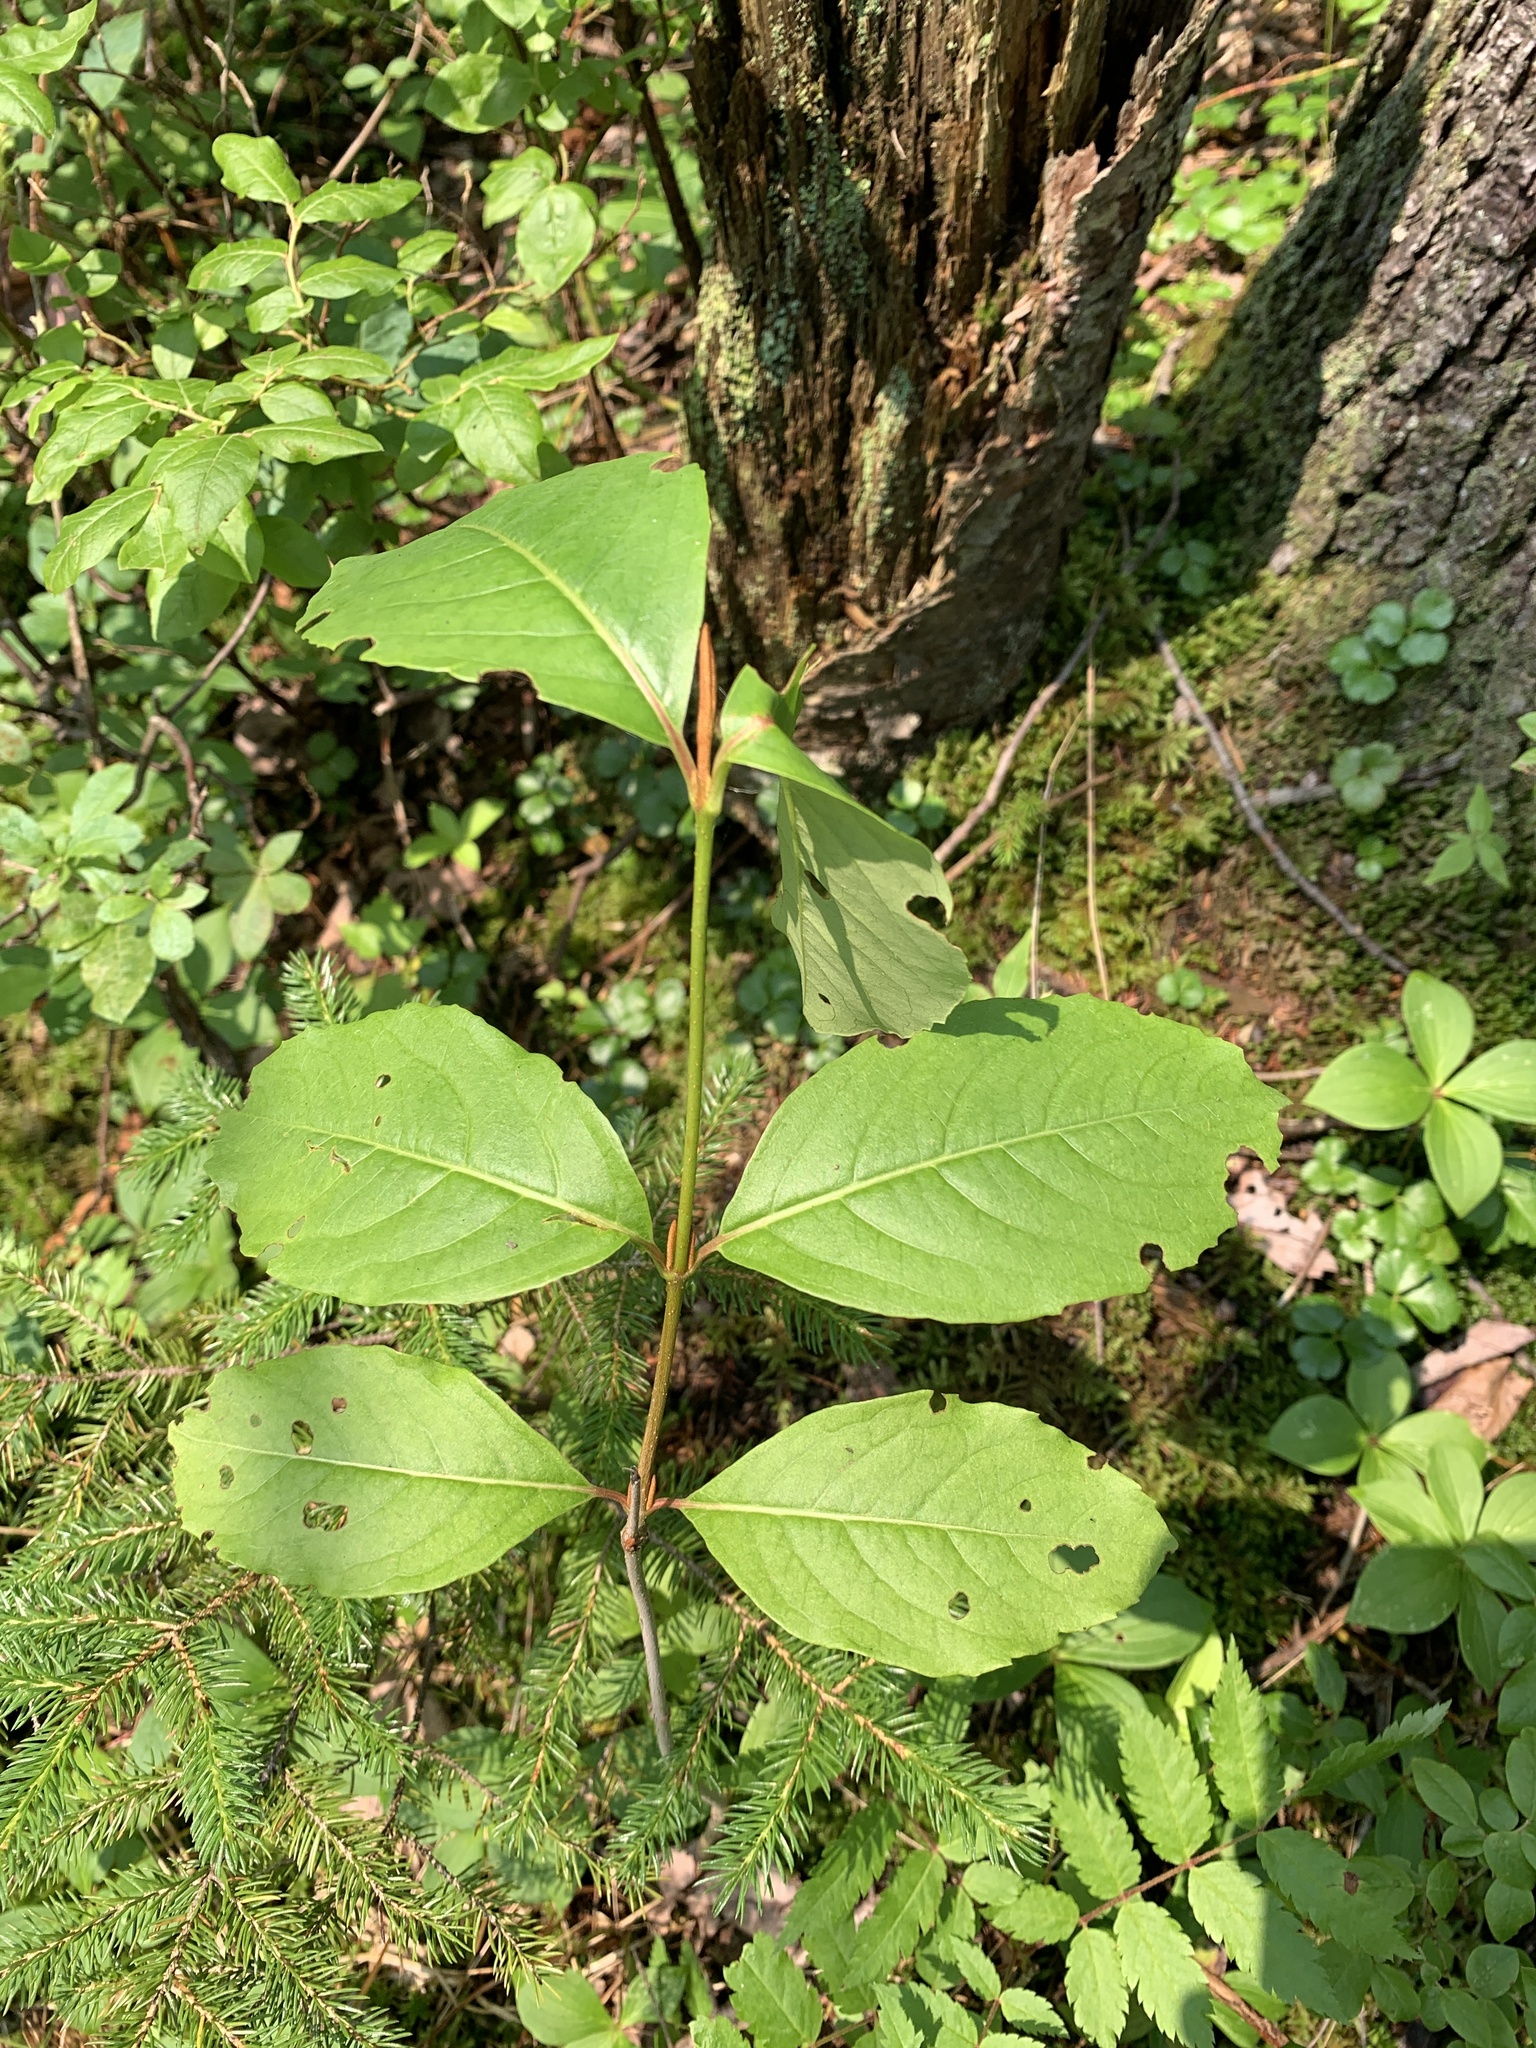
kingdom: Plantae
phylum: Tracheophyta
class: Magnoliopsida
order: Dipsacales
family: Viburnaceae
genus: Viburnum
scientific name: Viburnum cassinoides
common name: Swamp haw
